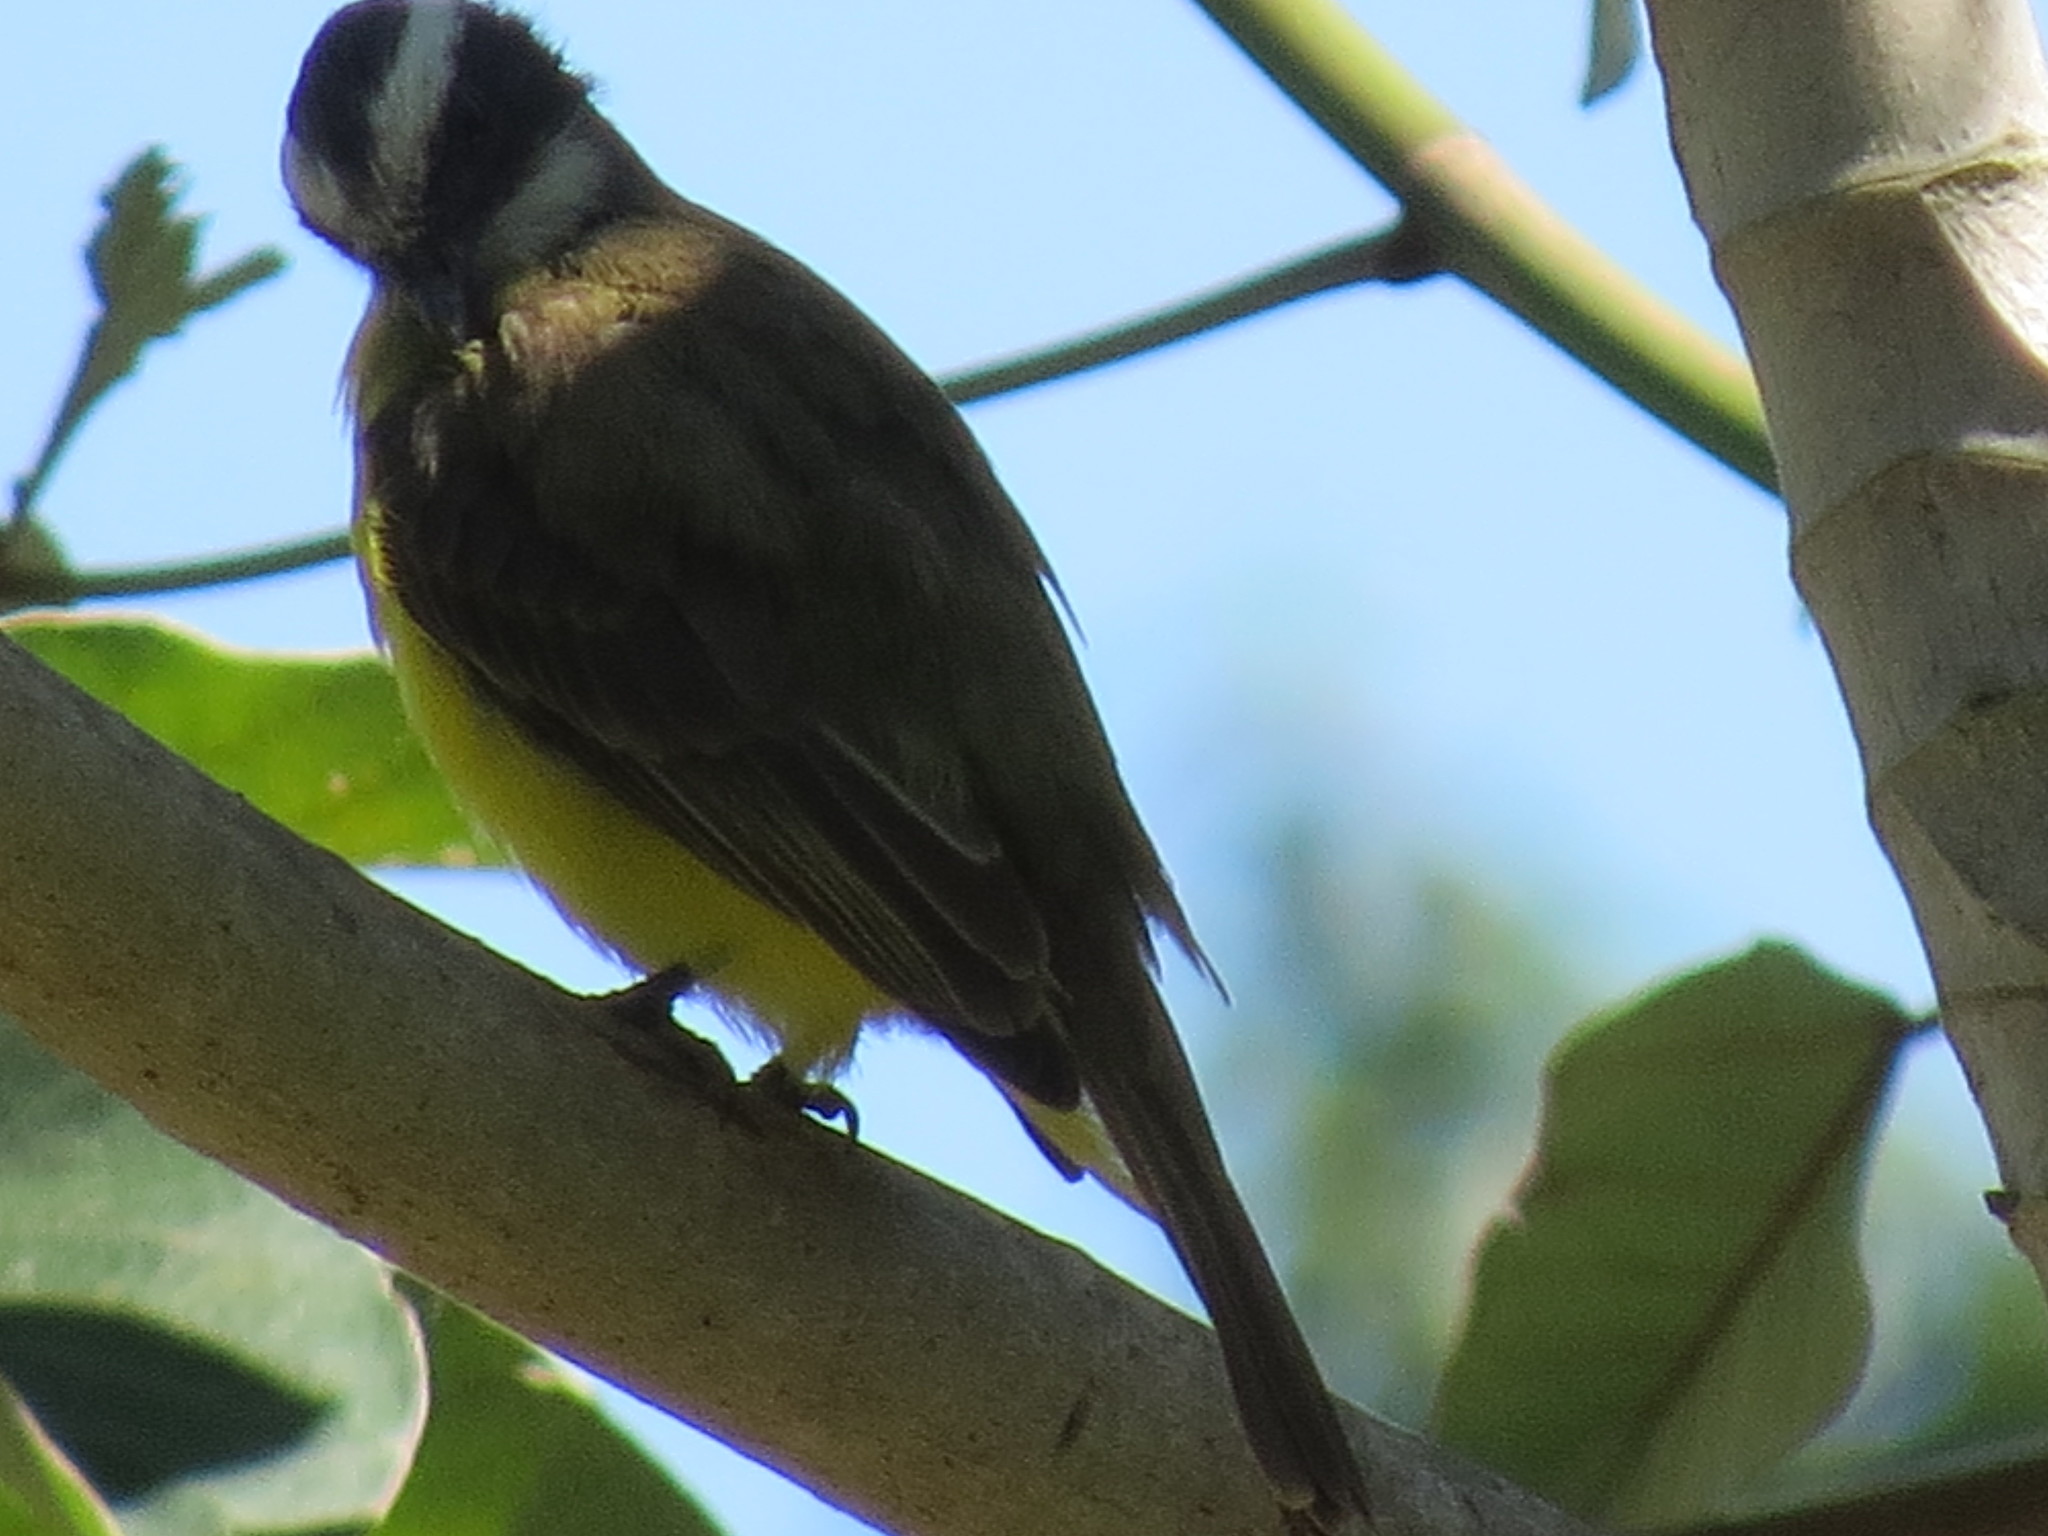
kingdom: Animalia
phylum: Chordata
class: Aves
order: Passeriformes
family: Tyrannidae
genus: Myiozetetes
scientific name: Myiozetetes similis
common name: Social flycatcher
